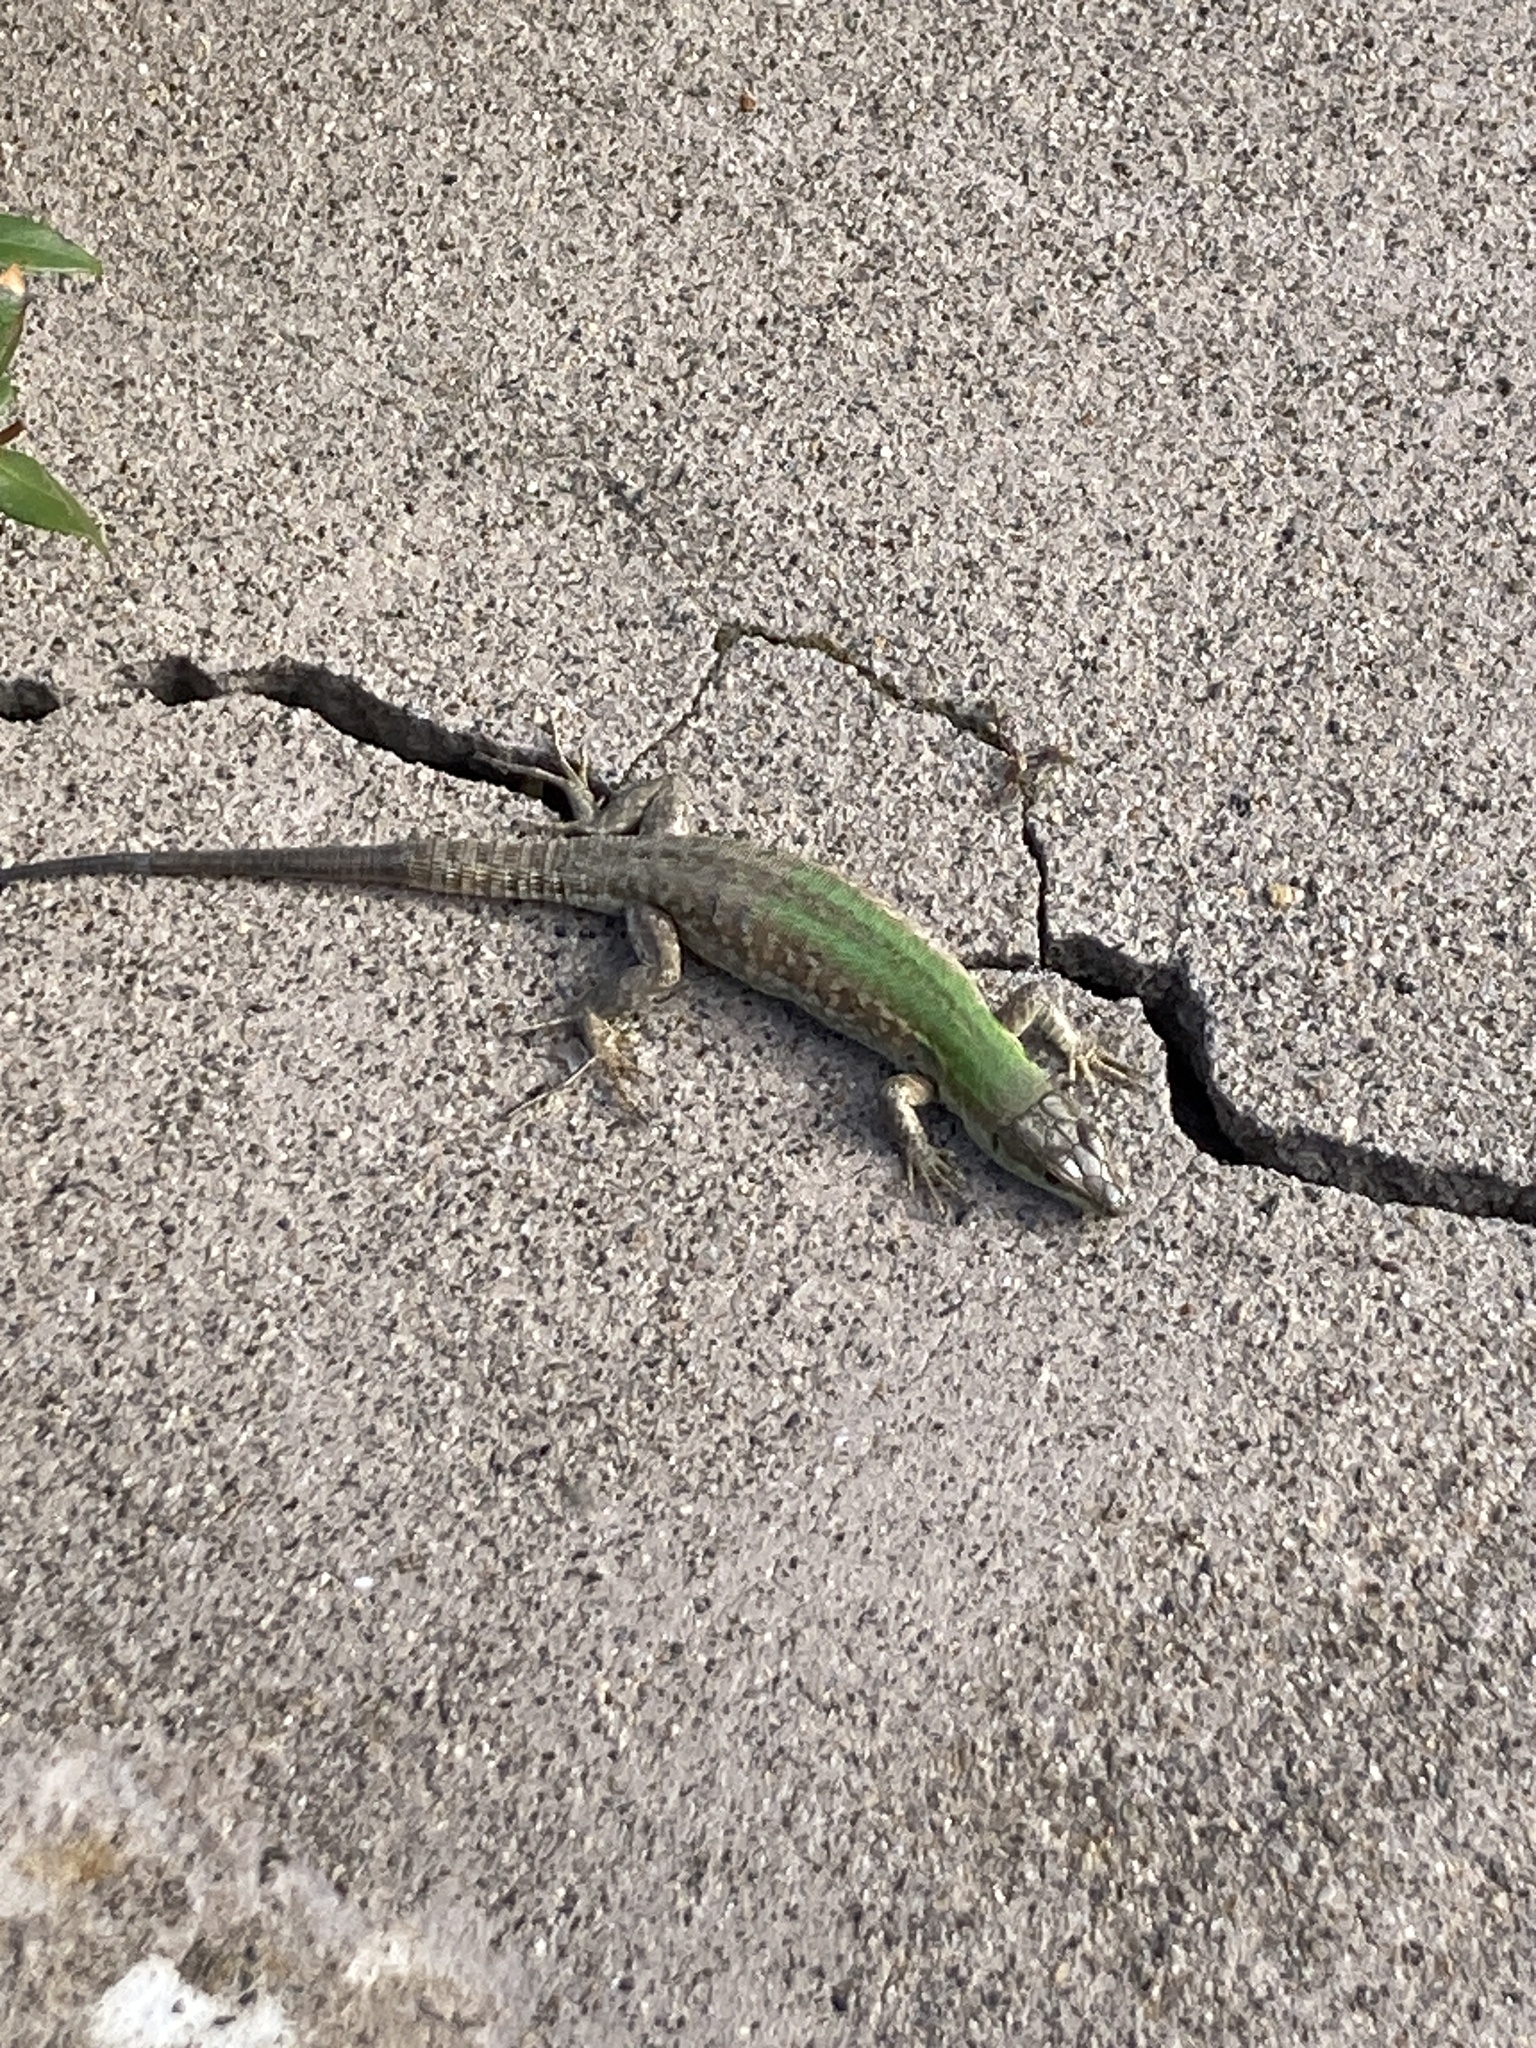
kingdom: Animalia
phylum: Chordata
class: Squamata
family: Lacertidae
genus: Podarcis
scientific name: Podarcis siculus
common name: Italian wall lizard
